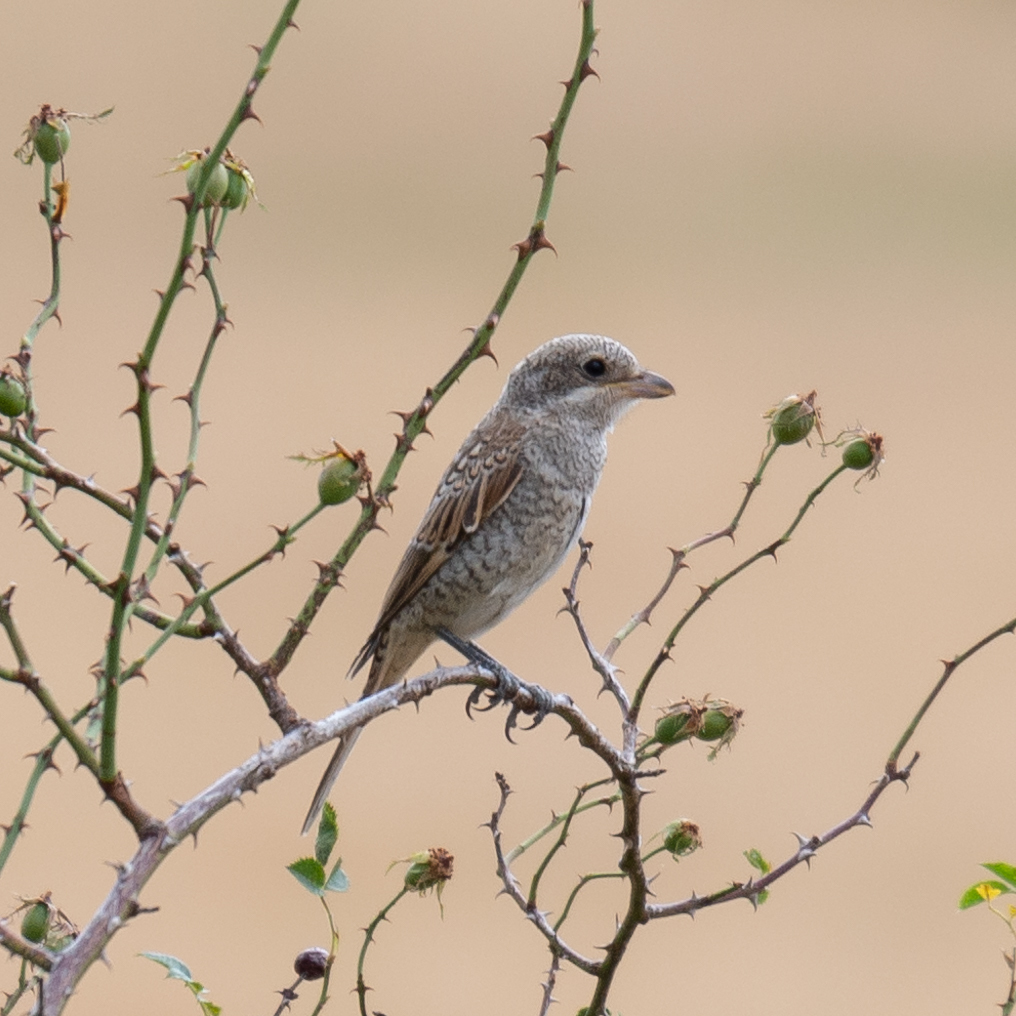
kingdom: Animalia
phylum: Chordata
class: Aves
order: Passeriformes
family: Laniidae
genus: Lanius
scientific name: Lanius senator
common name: Woodchat shrike
